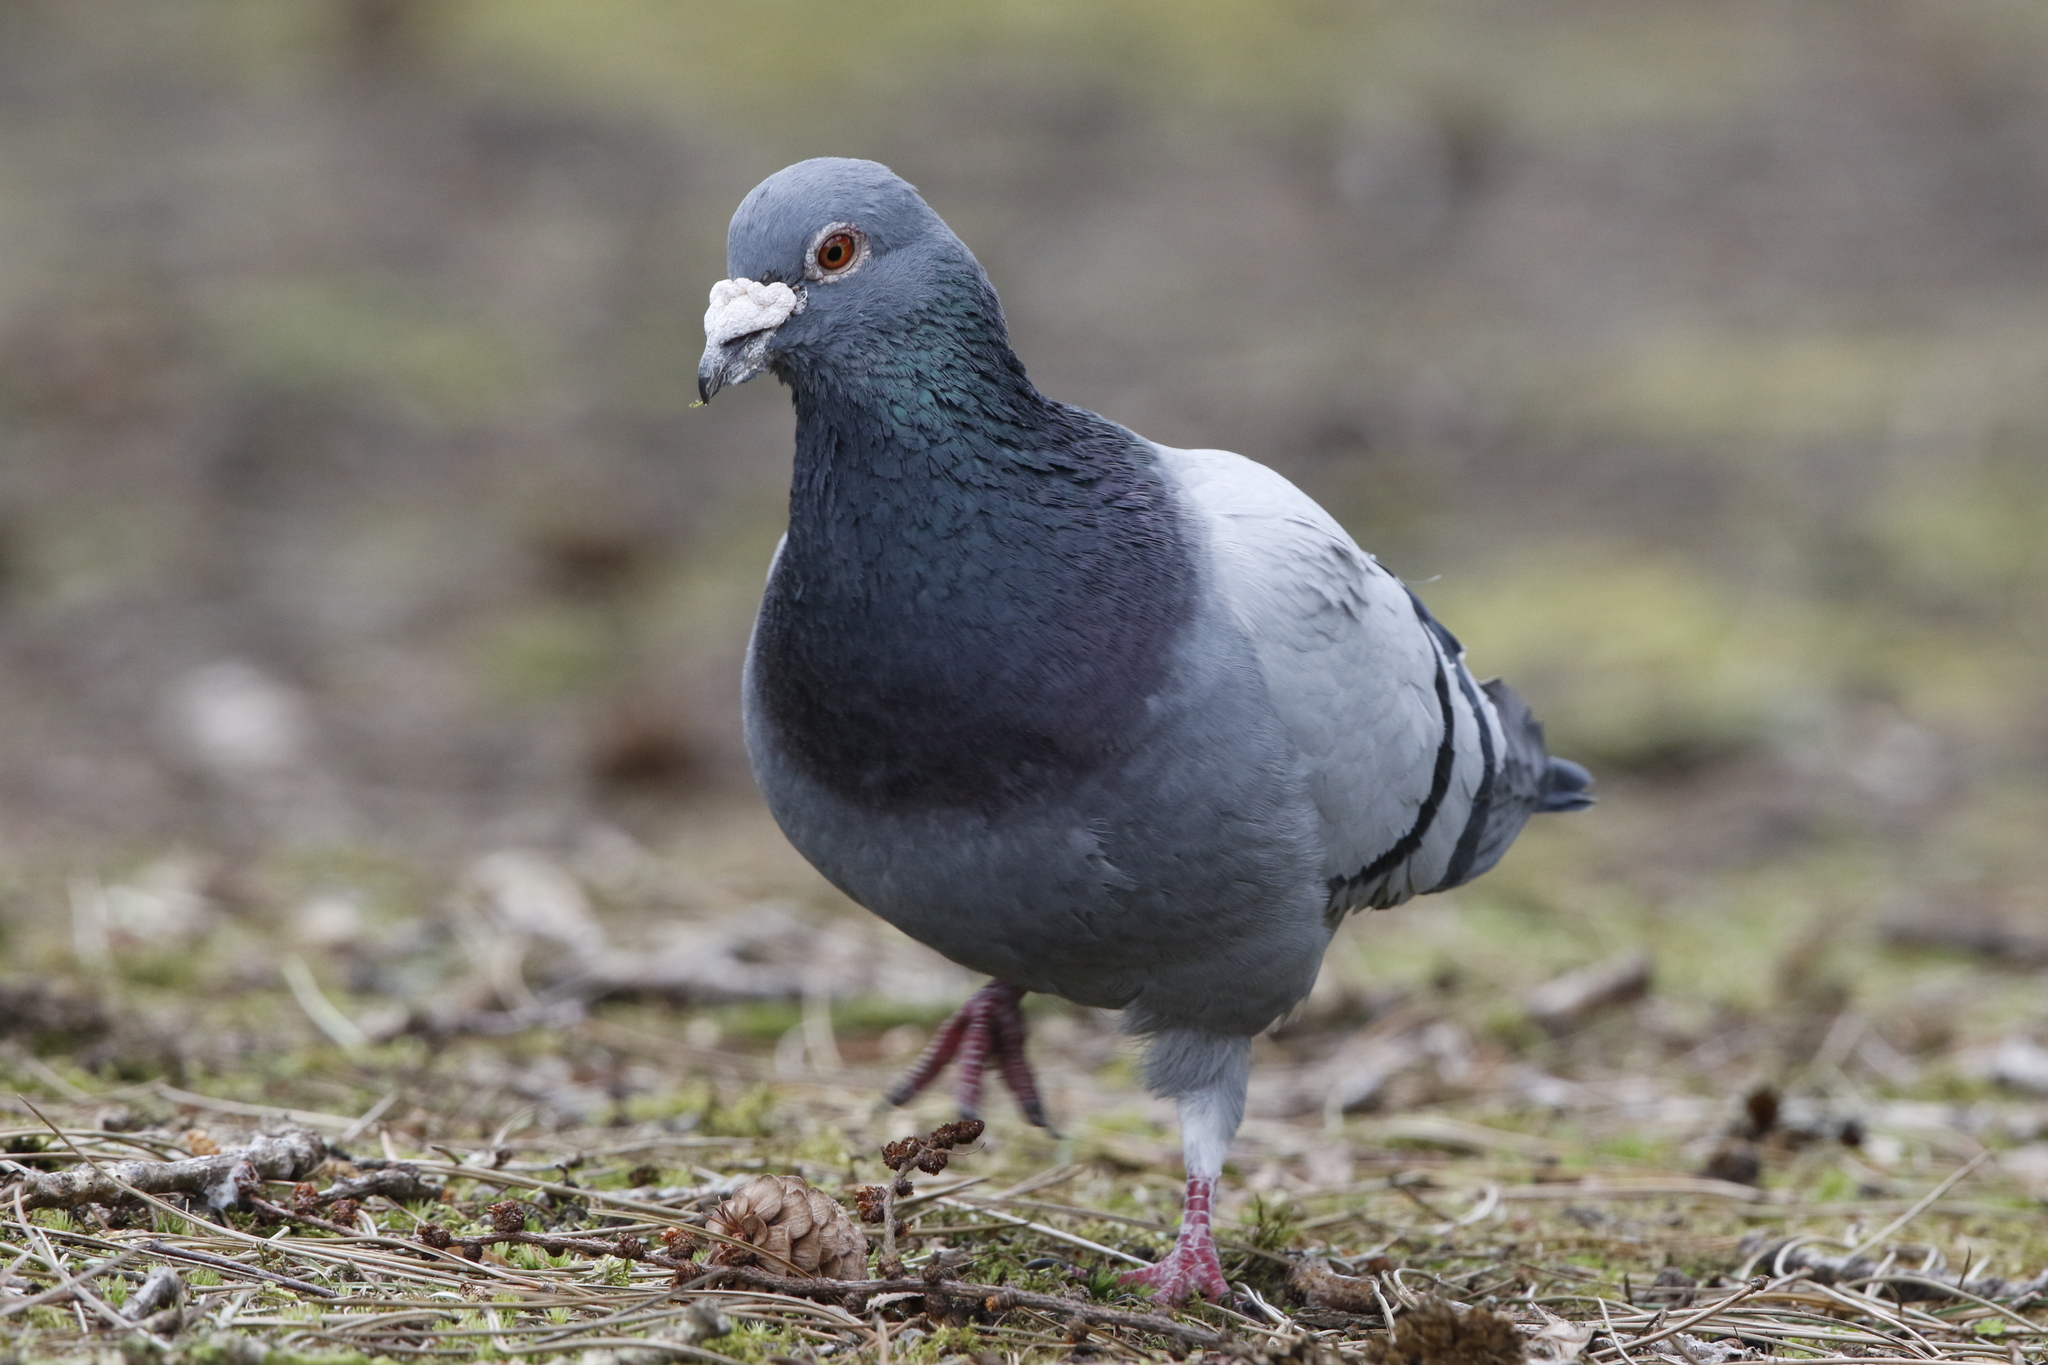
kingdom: Animalia
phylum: Chordata
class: Aves
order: Columbiformes
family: Columbidae
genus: Columba
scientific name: Columba livia
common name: Rock pigeon
